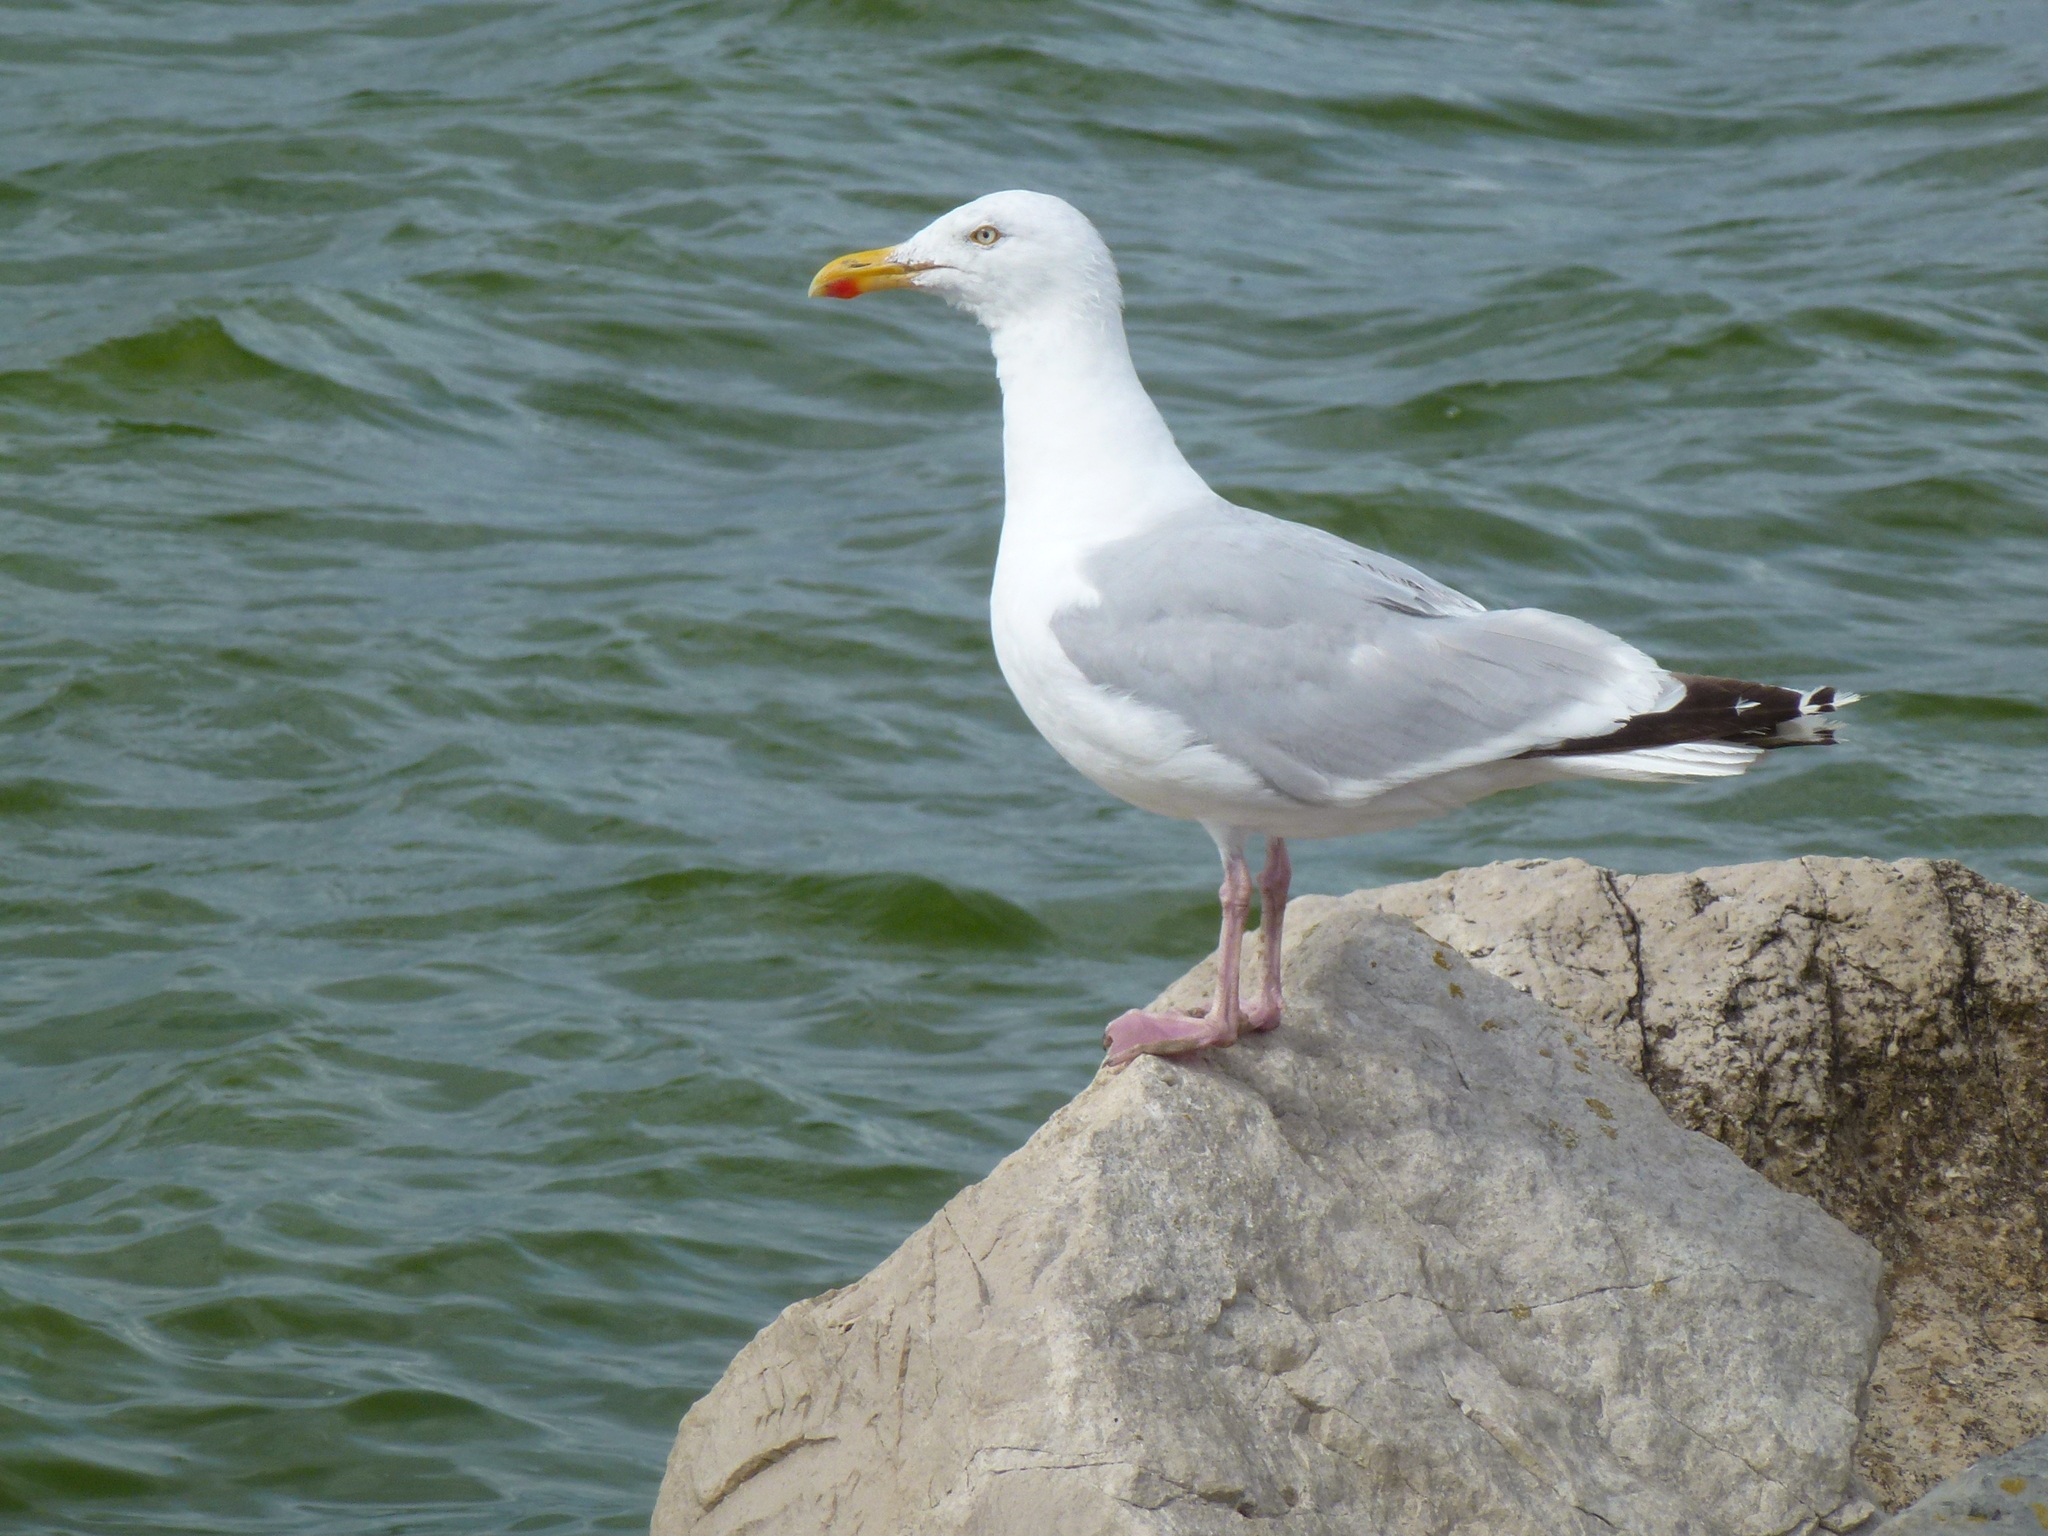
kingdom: Animalia
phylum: Chordata
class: Aves
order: Charadriiformes
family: Laridae
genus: Larus
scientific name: Larus argentatus
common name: Herring gull
